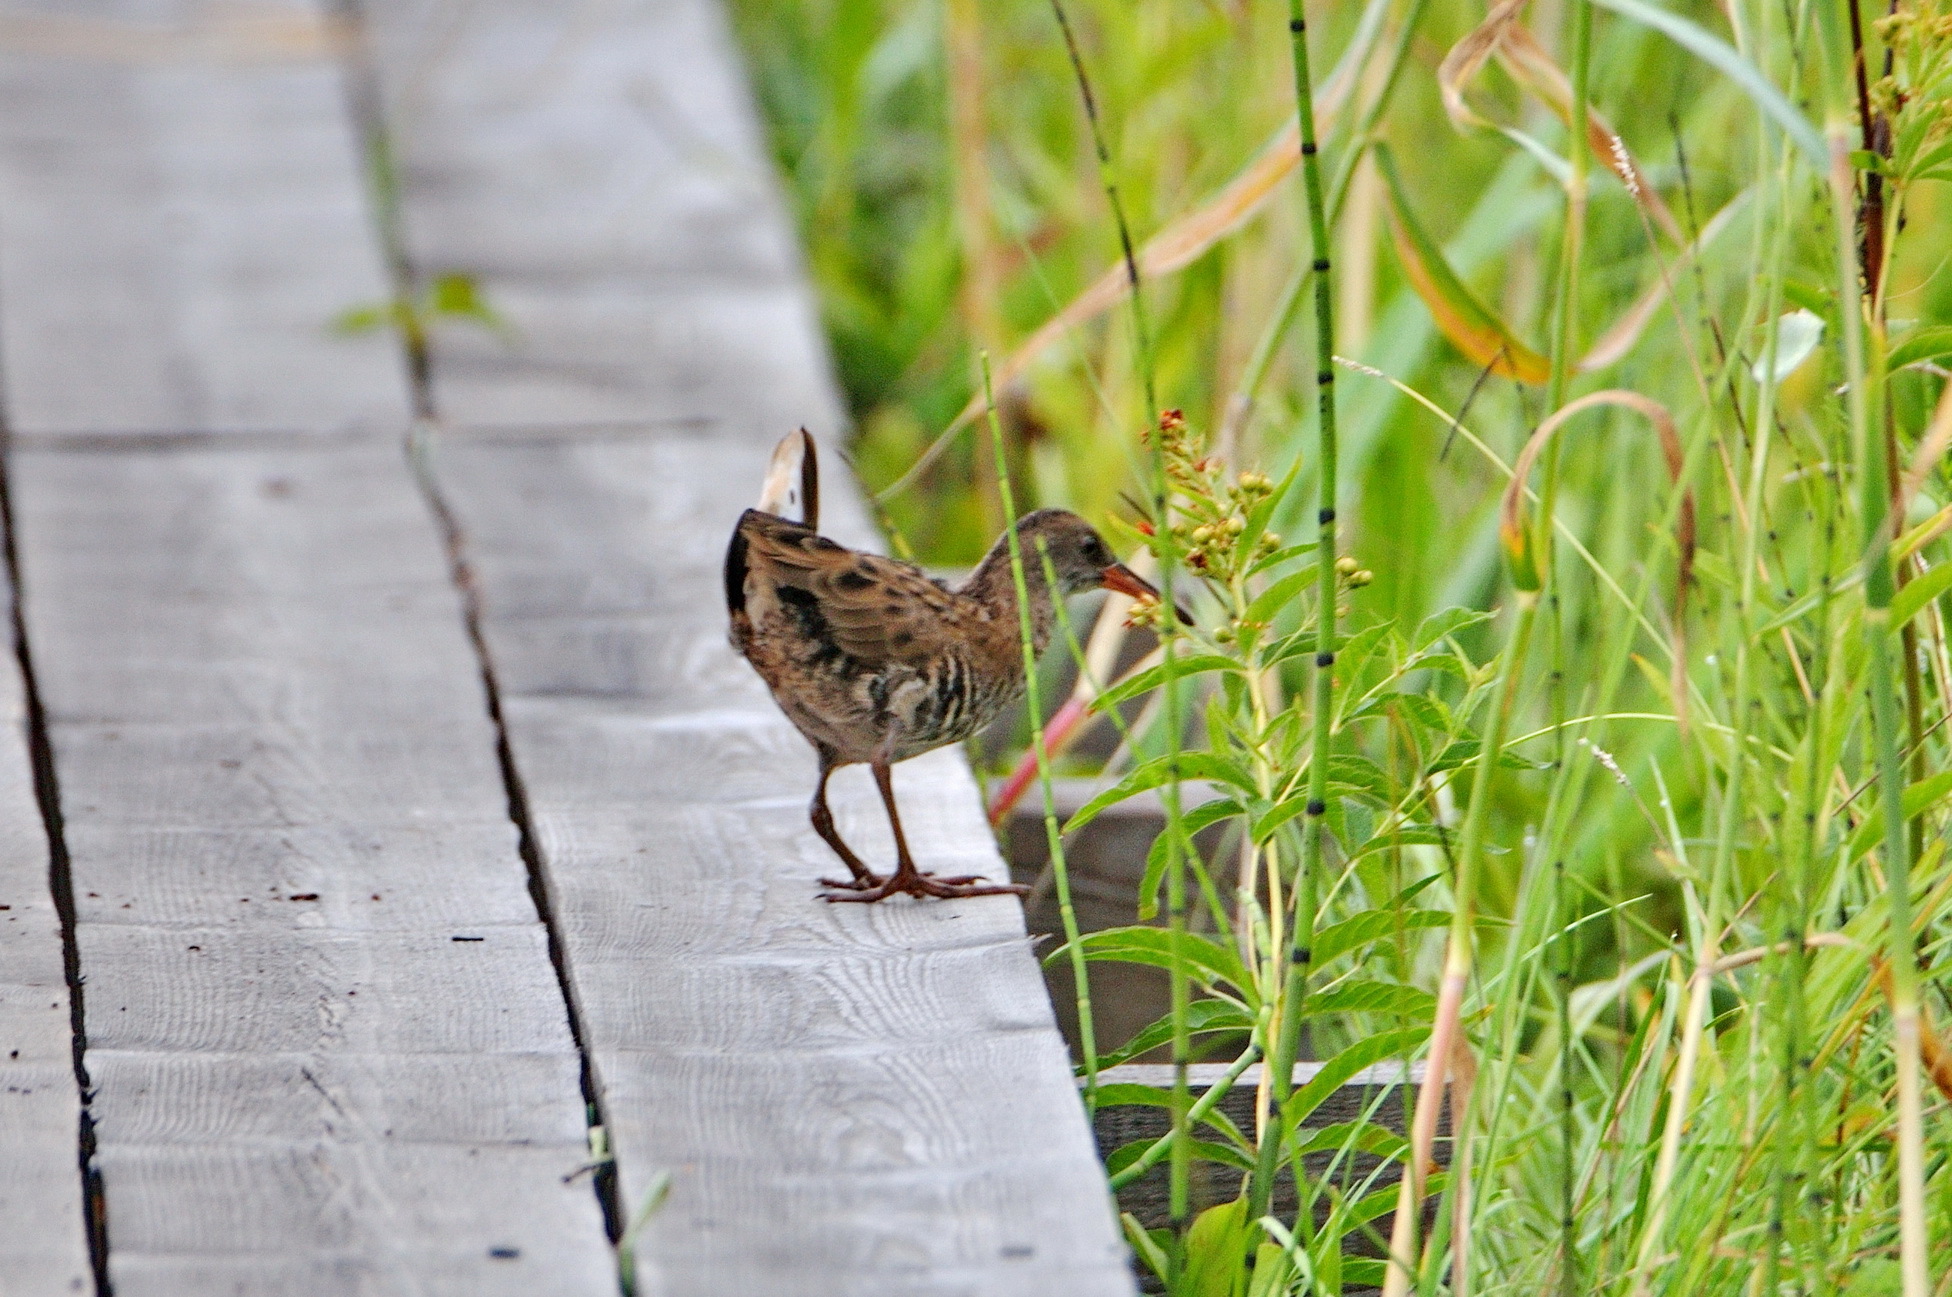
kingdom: Animalia
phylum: Chordata
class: Aves
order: Gruiformes
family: Rallidae
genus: Rallus
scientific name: Rallus aquaticus
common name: Water rail
